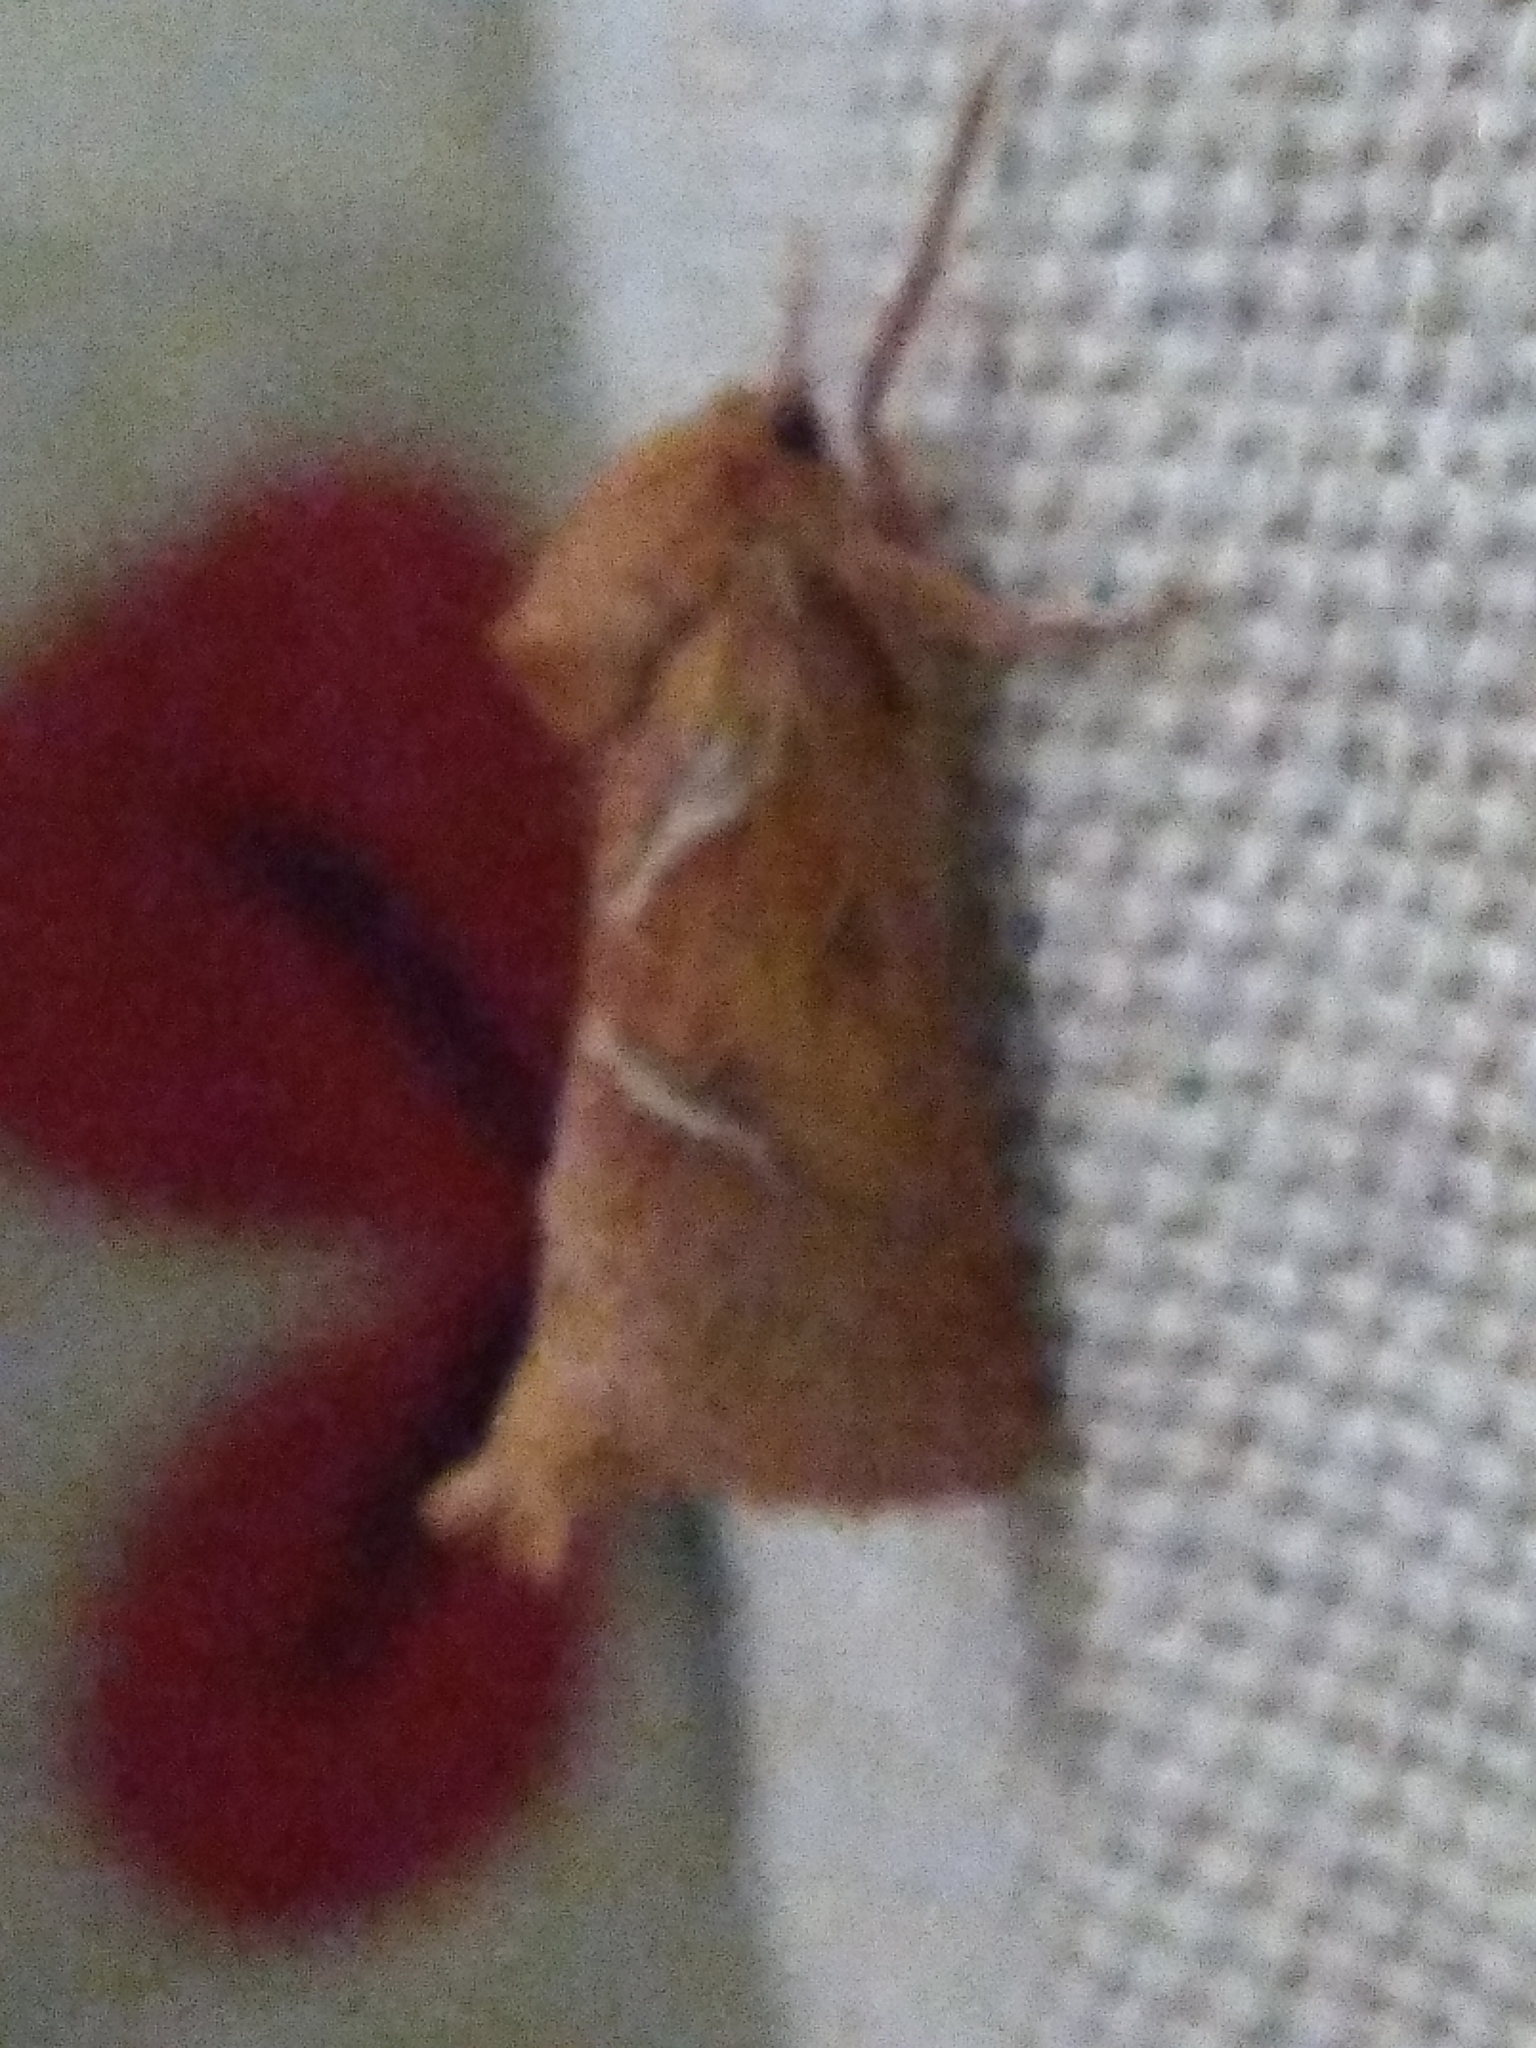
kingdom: Animalia
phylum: Arthropoda
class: Insecta
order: Lepidoptera
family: Hepialidae
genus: Triodia
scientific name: Triodia sylvina
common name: Orange swift
